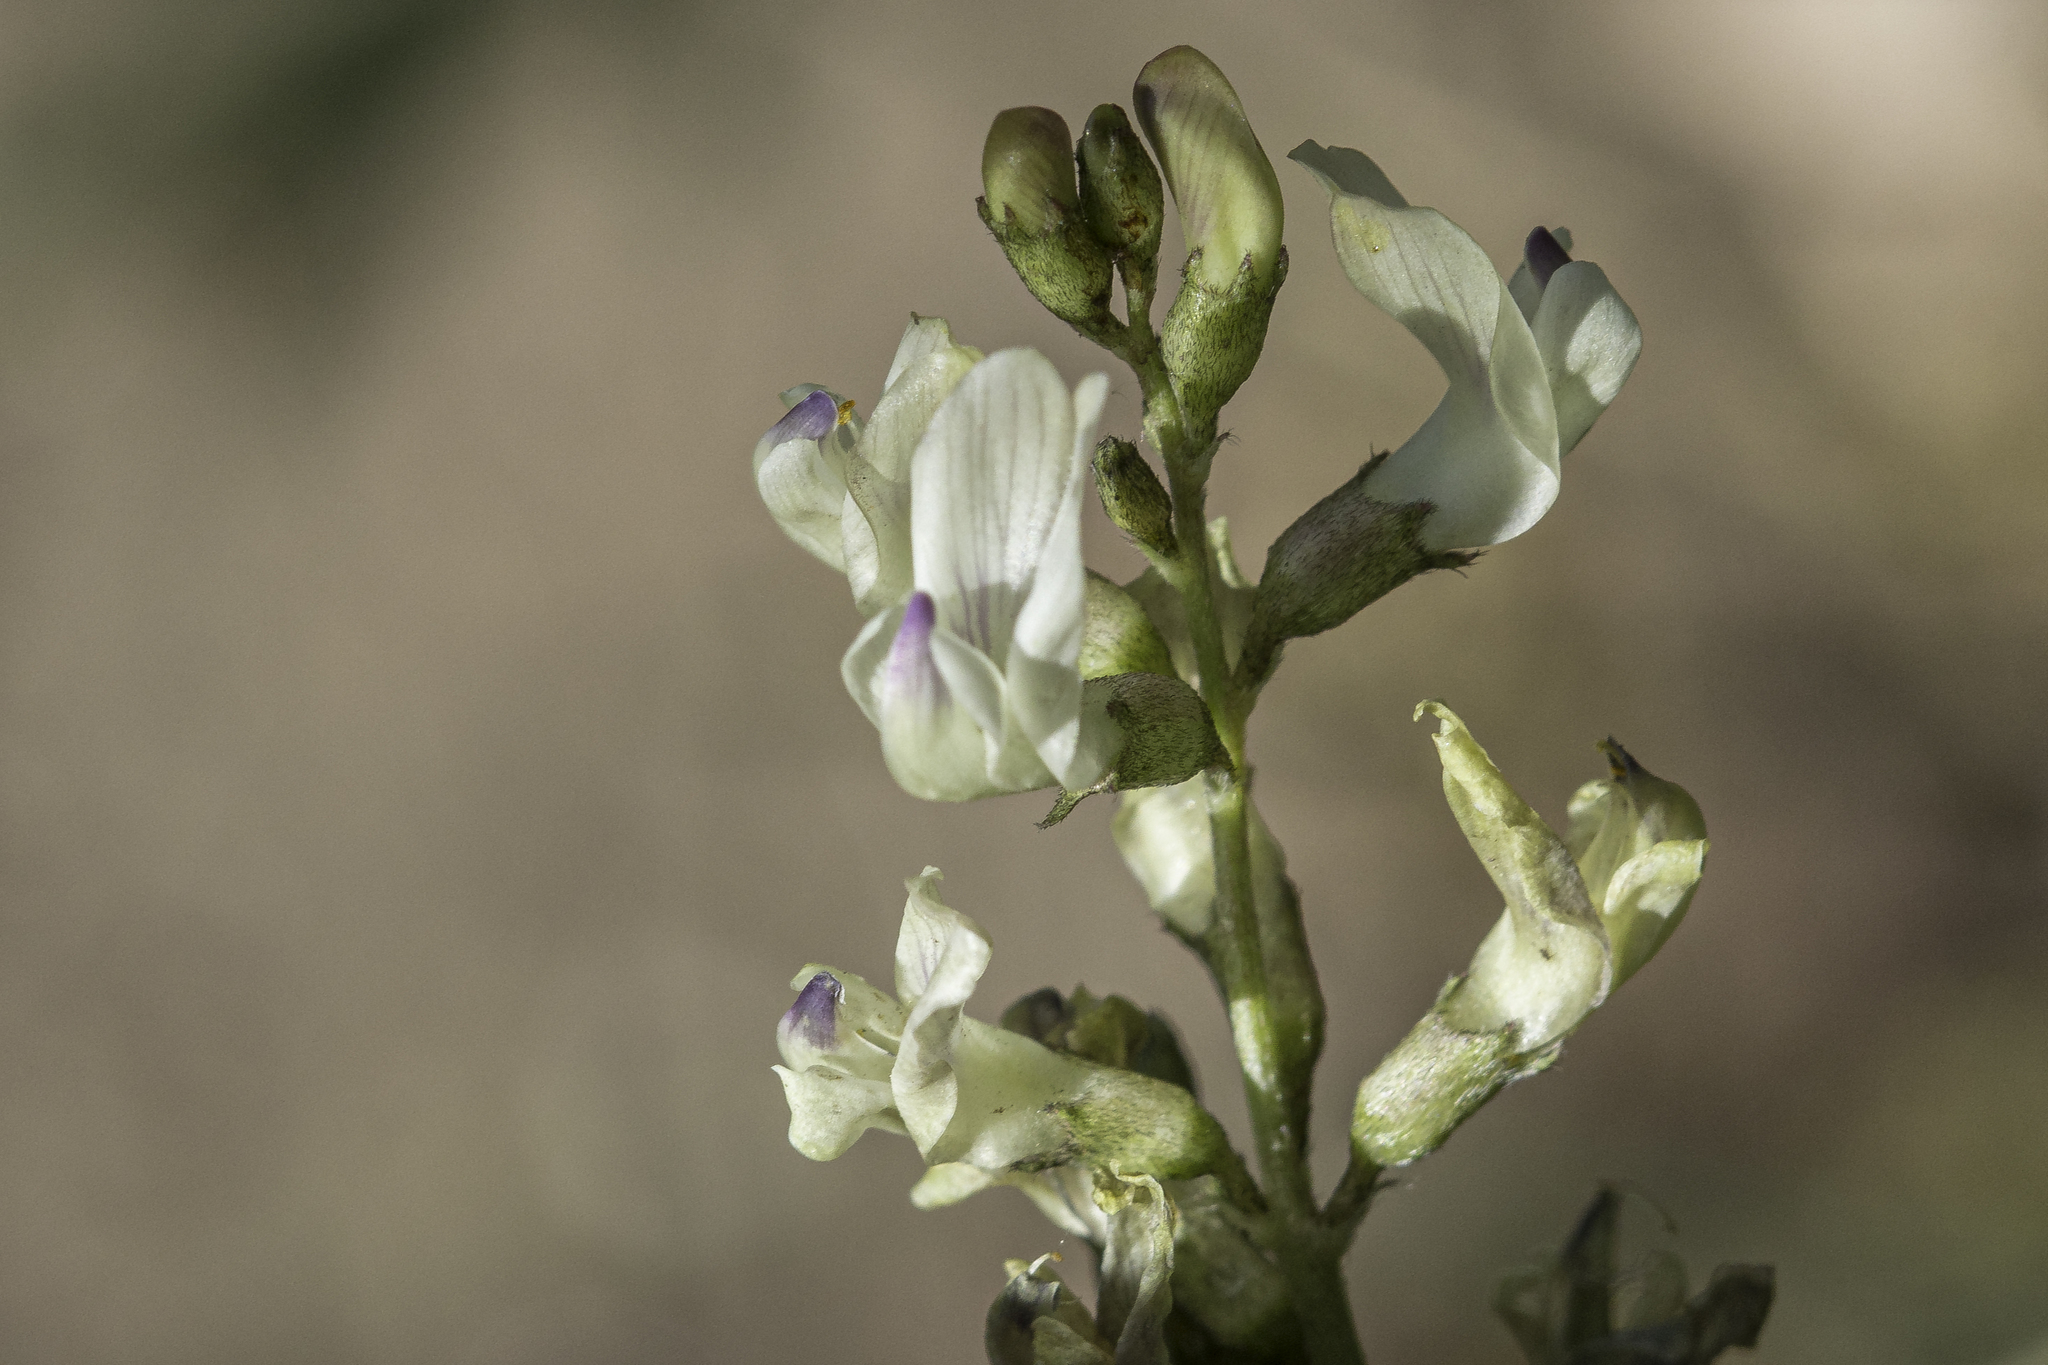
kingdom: Plantae
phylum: Tracheophyta
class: Magnoliopsida
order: Fabales
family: Fabaceae
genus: Astragalus
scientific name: Astragalus miser
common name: Timber milkvetch
